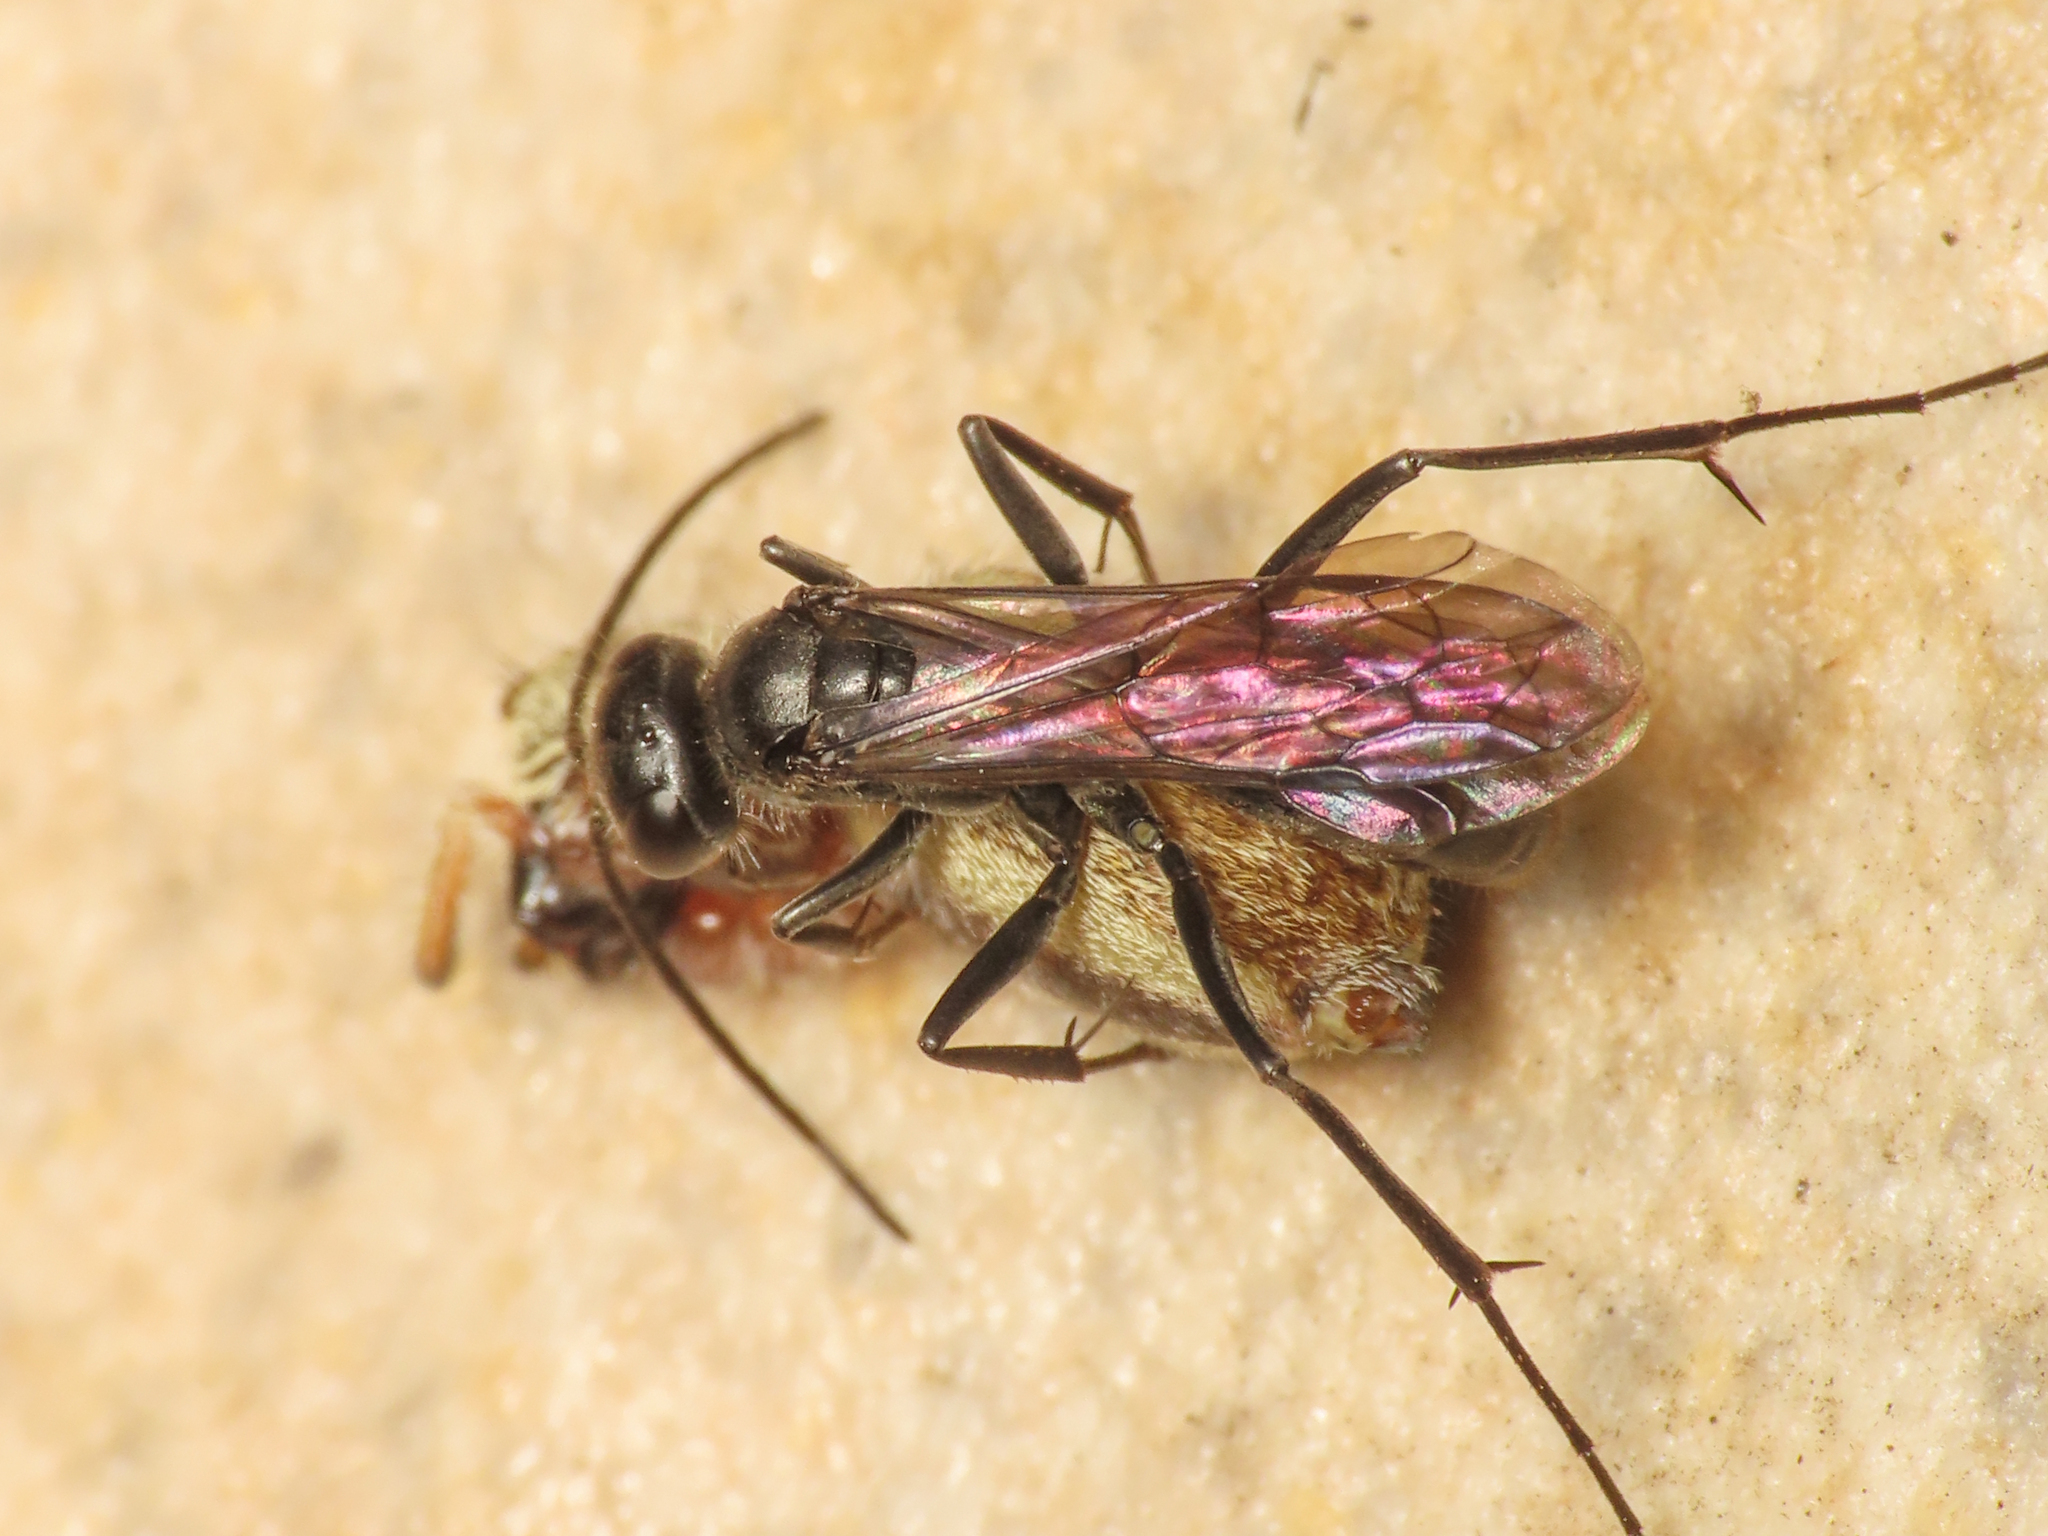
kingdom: Animalia
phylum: Arthropoda
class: Insecta
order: Hymenoptera
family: Pompilidae
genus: Auplopus
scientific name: Auplopus carbonarius
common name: Spider wasp
